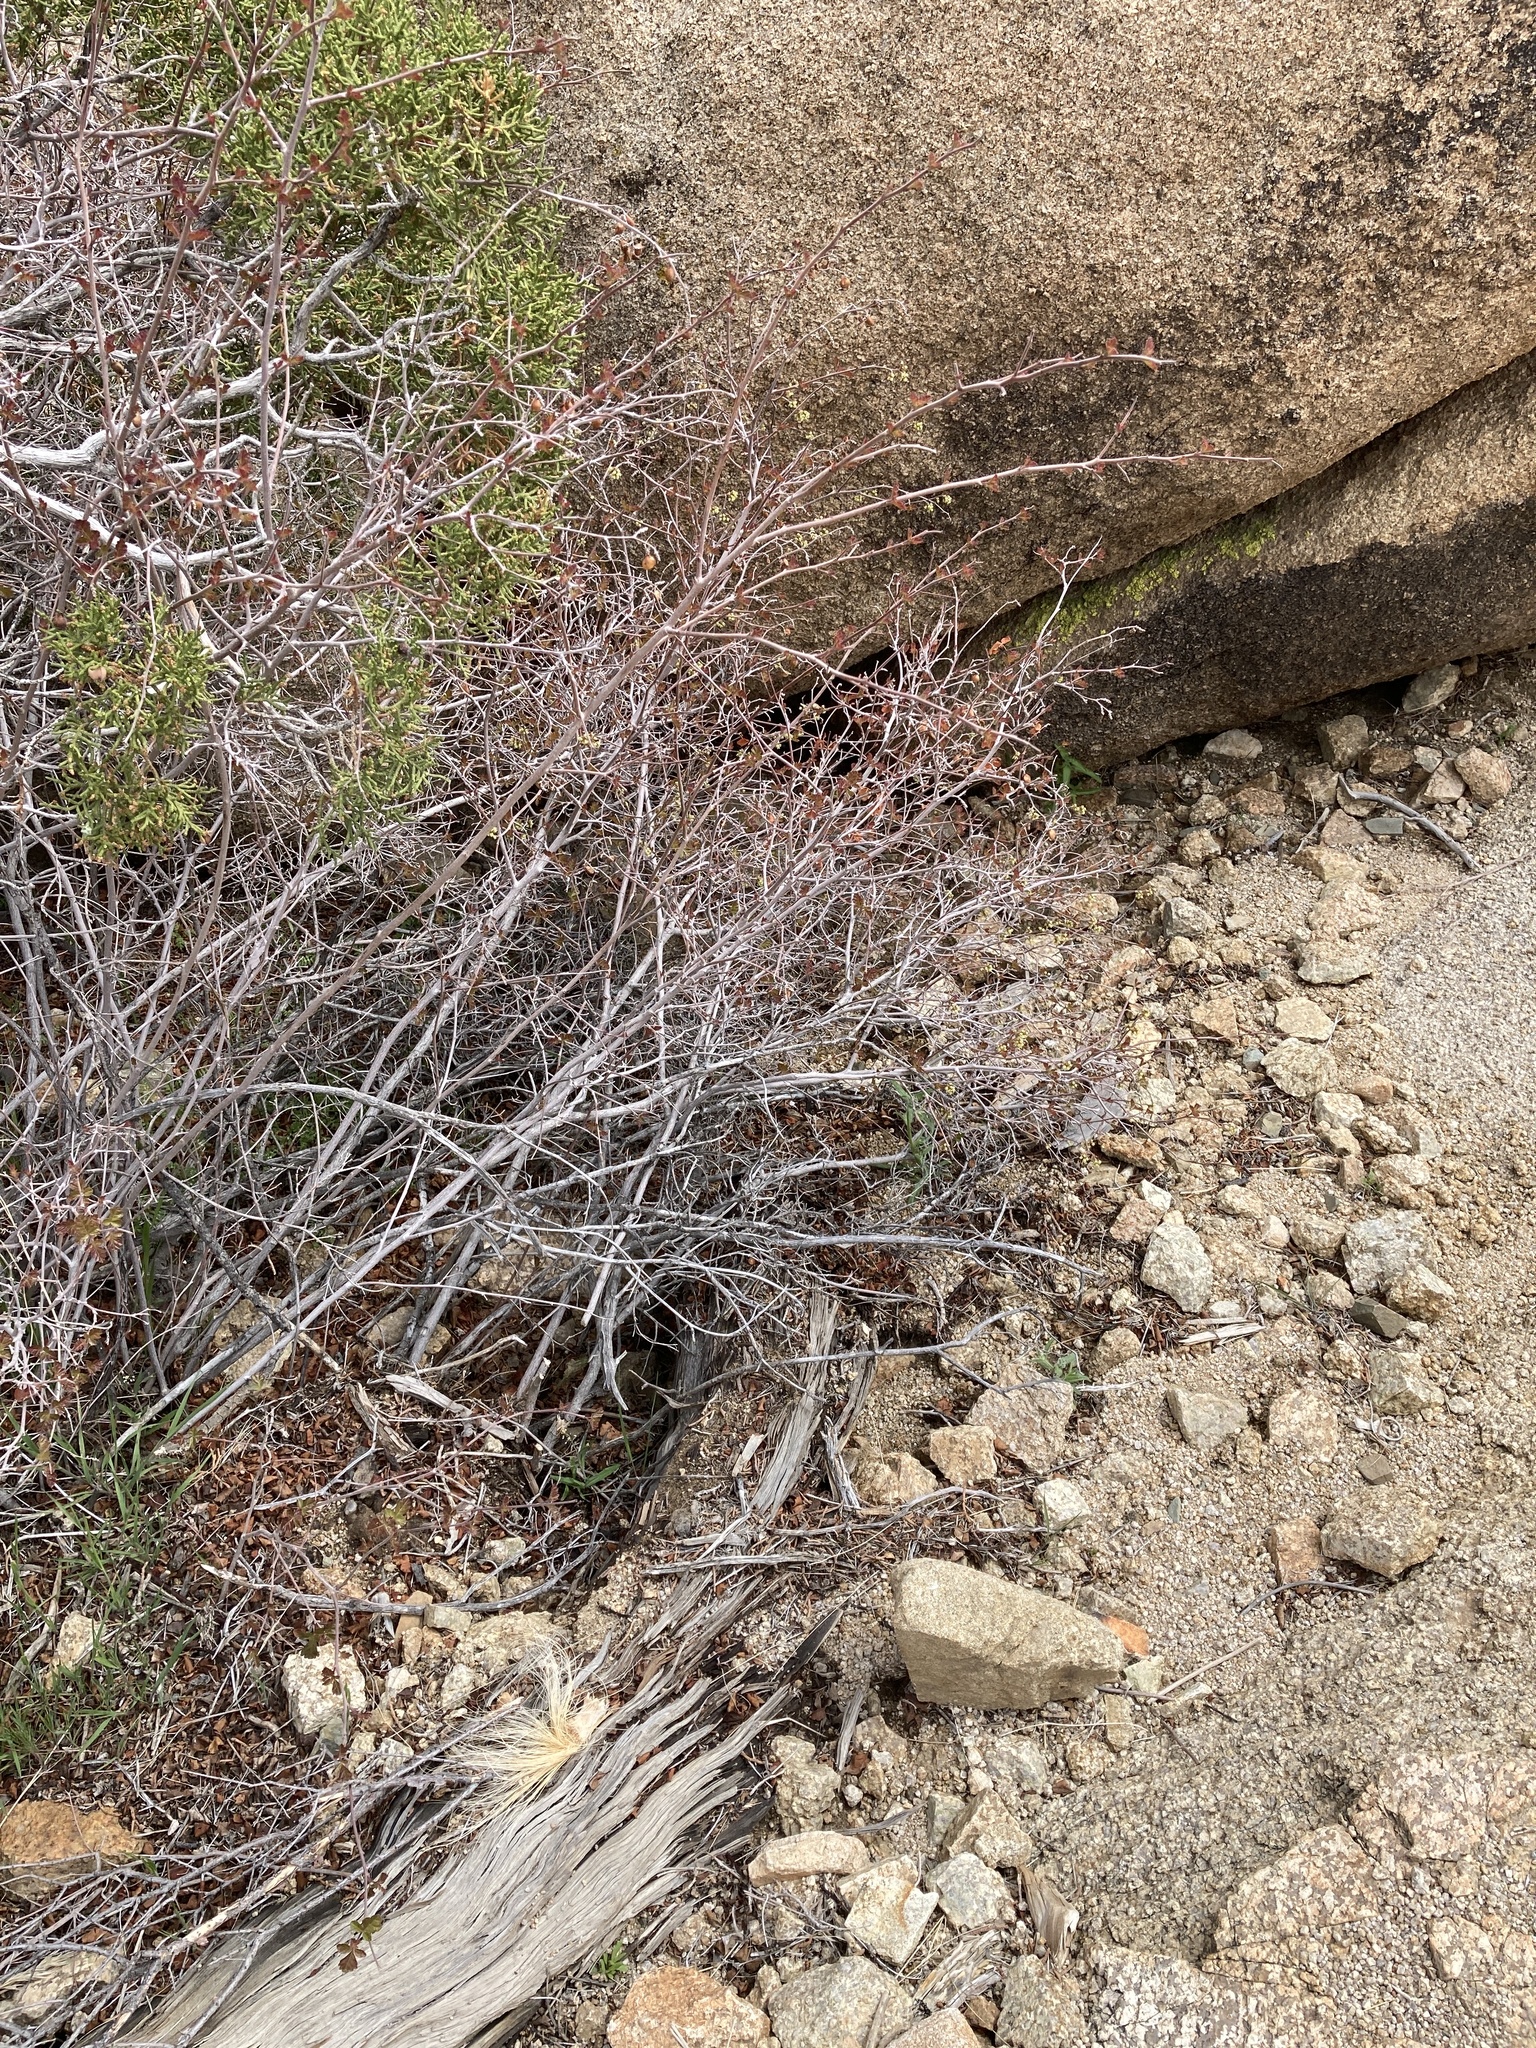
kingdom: Plantae
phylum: Tracheophyta
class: Magnoliopsida
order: Sapindales
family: Anacardiaceae
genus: Rhus
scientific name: Rhus aromatica
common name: Aromatic sumac
